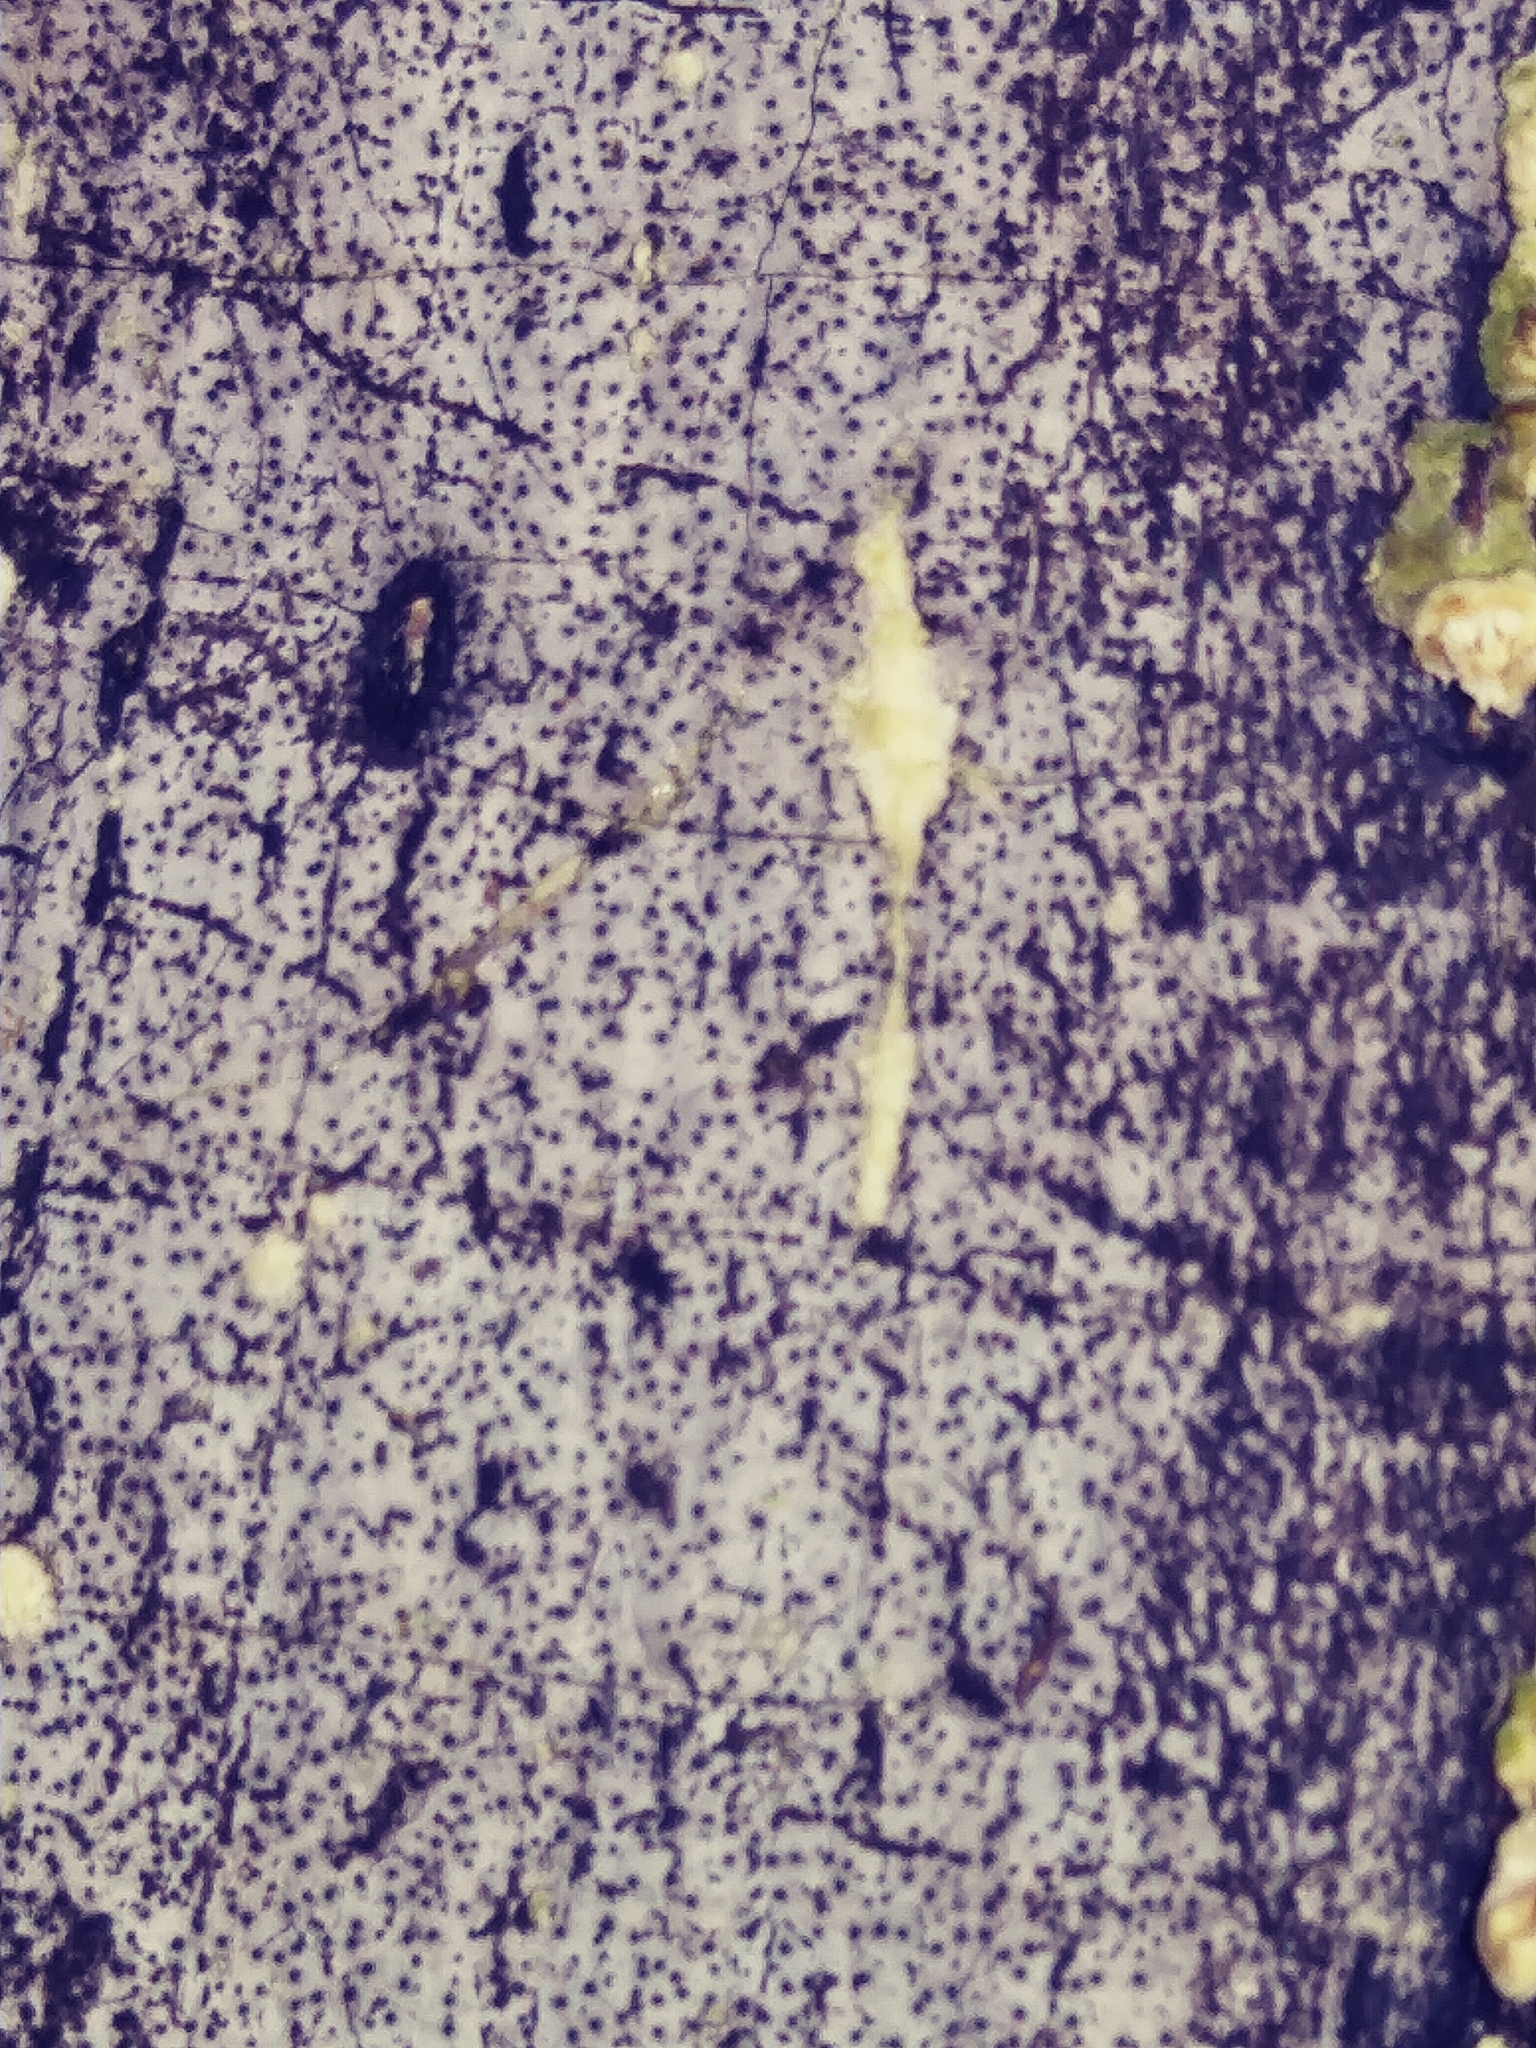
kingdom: Fungi
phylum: Ascomycota
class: Sordariomycetes
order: Xylariales
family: Graphostromataceae
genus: Biscogniauxia
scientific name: Biscogniauxia atropunctata
